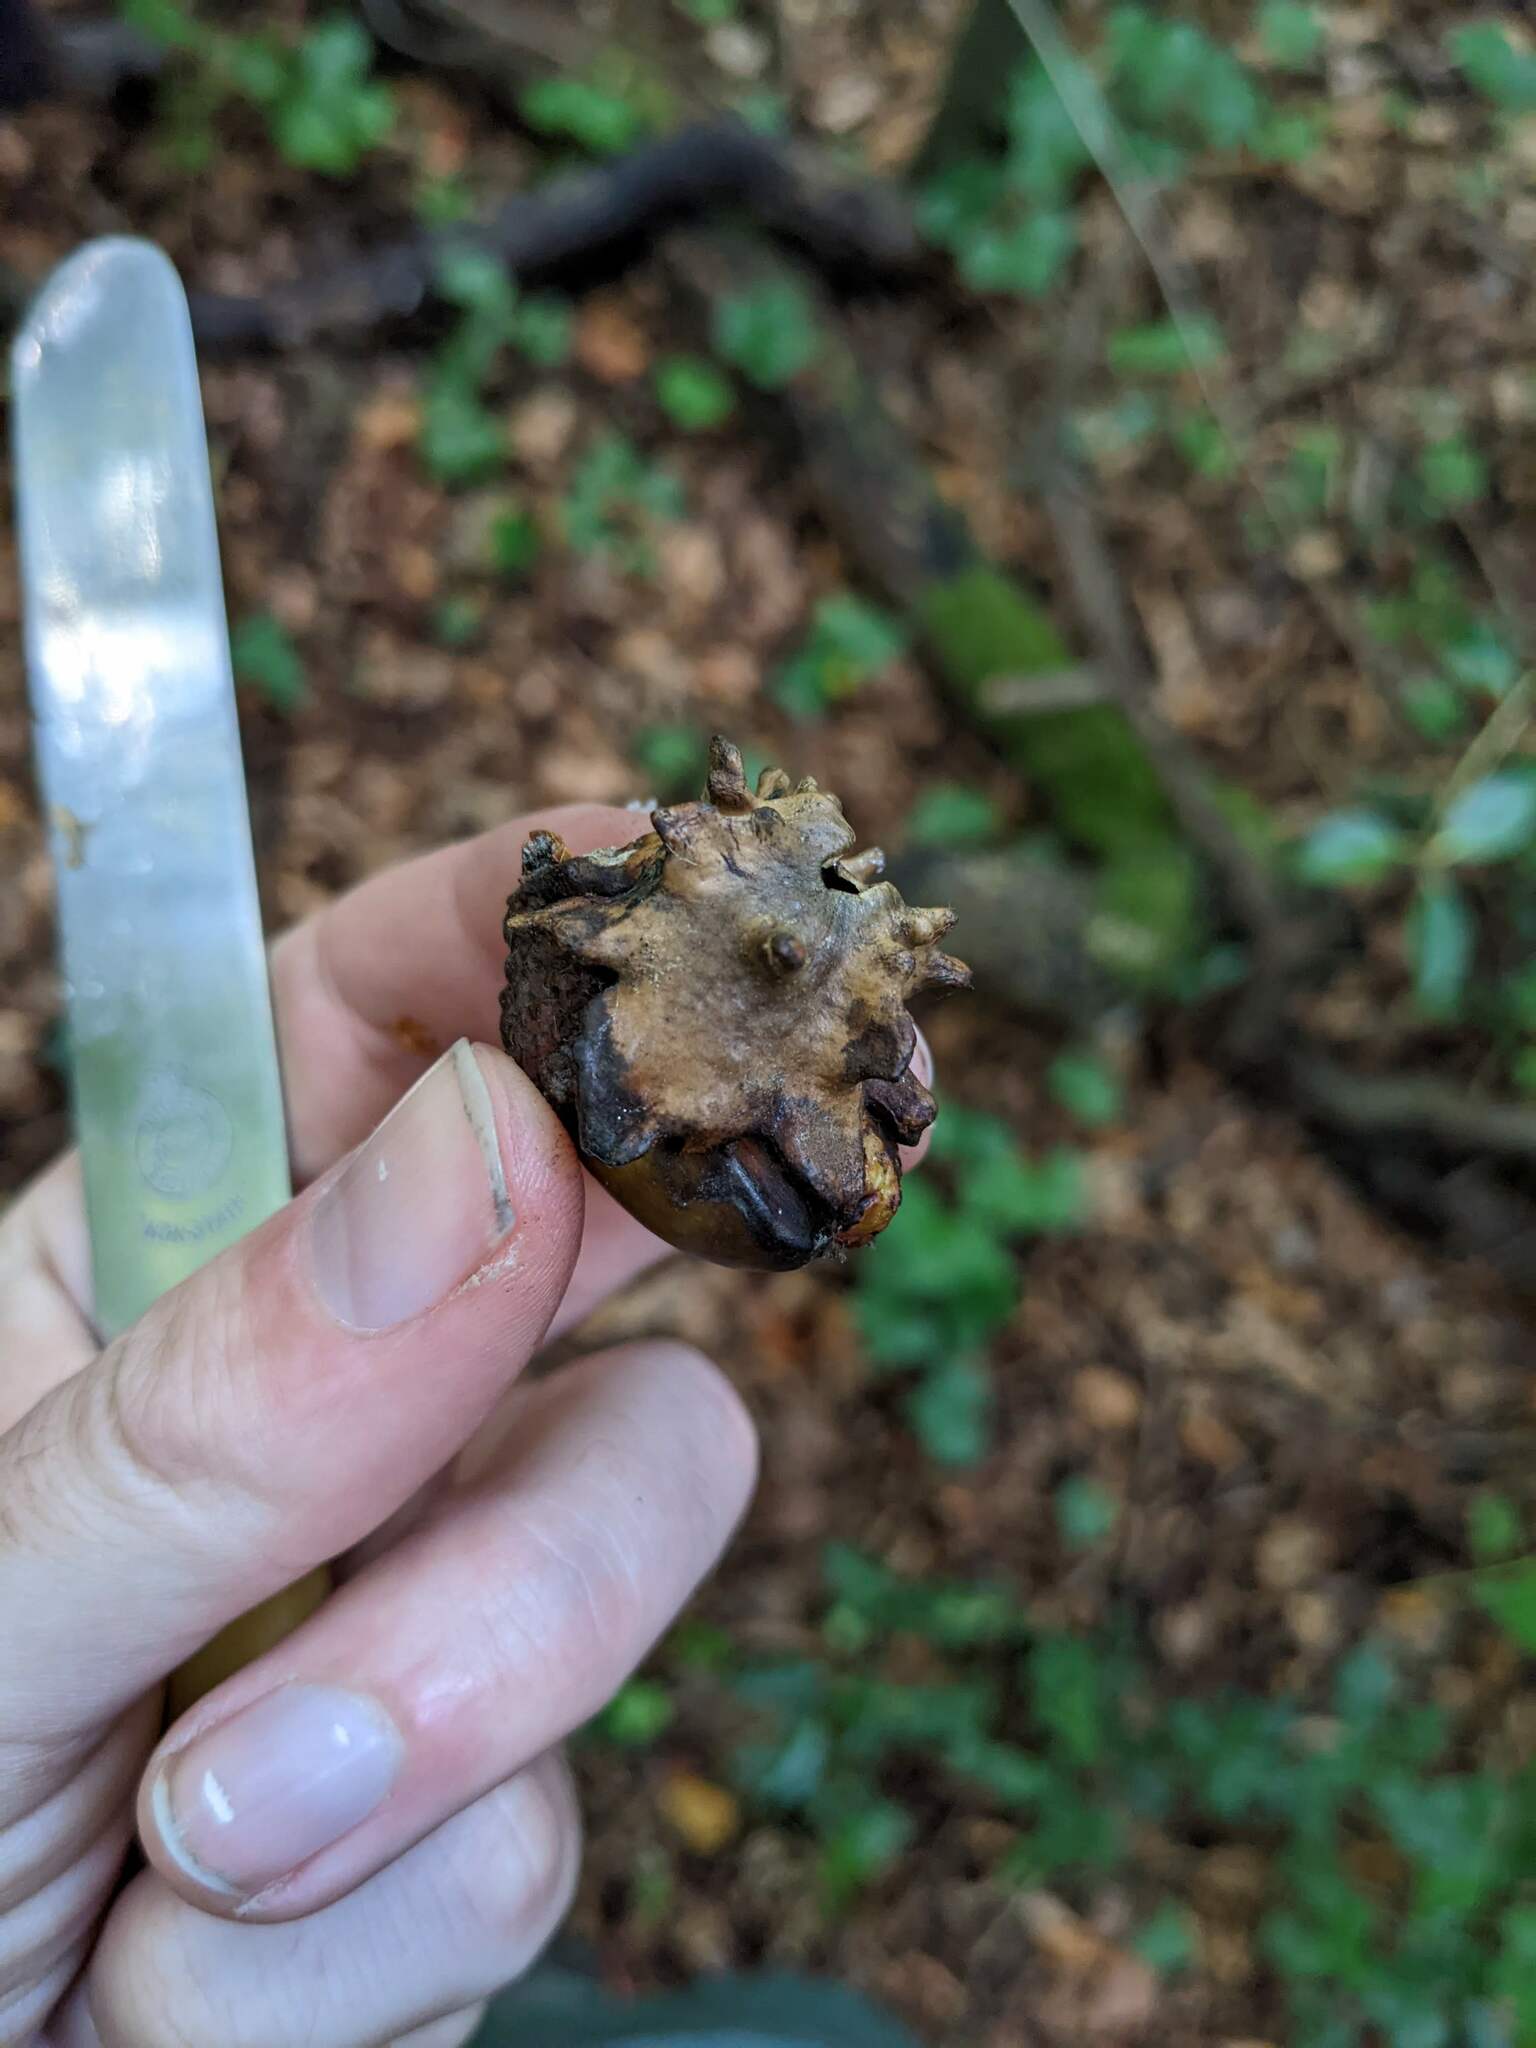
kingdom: Animalia
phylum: Arthropoda
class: Insecta
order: Hymenoptera
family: Cynipidae
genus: Andricus
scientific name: Andricus quercuscalicis
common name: Knopper gall
